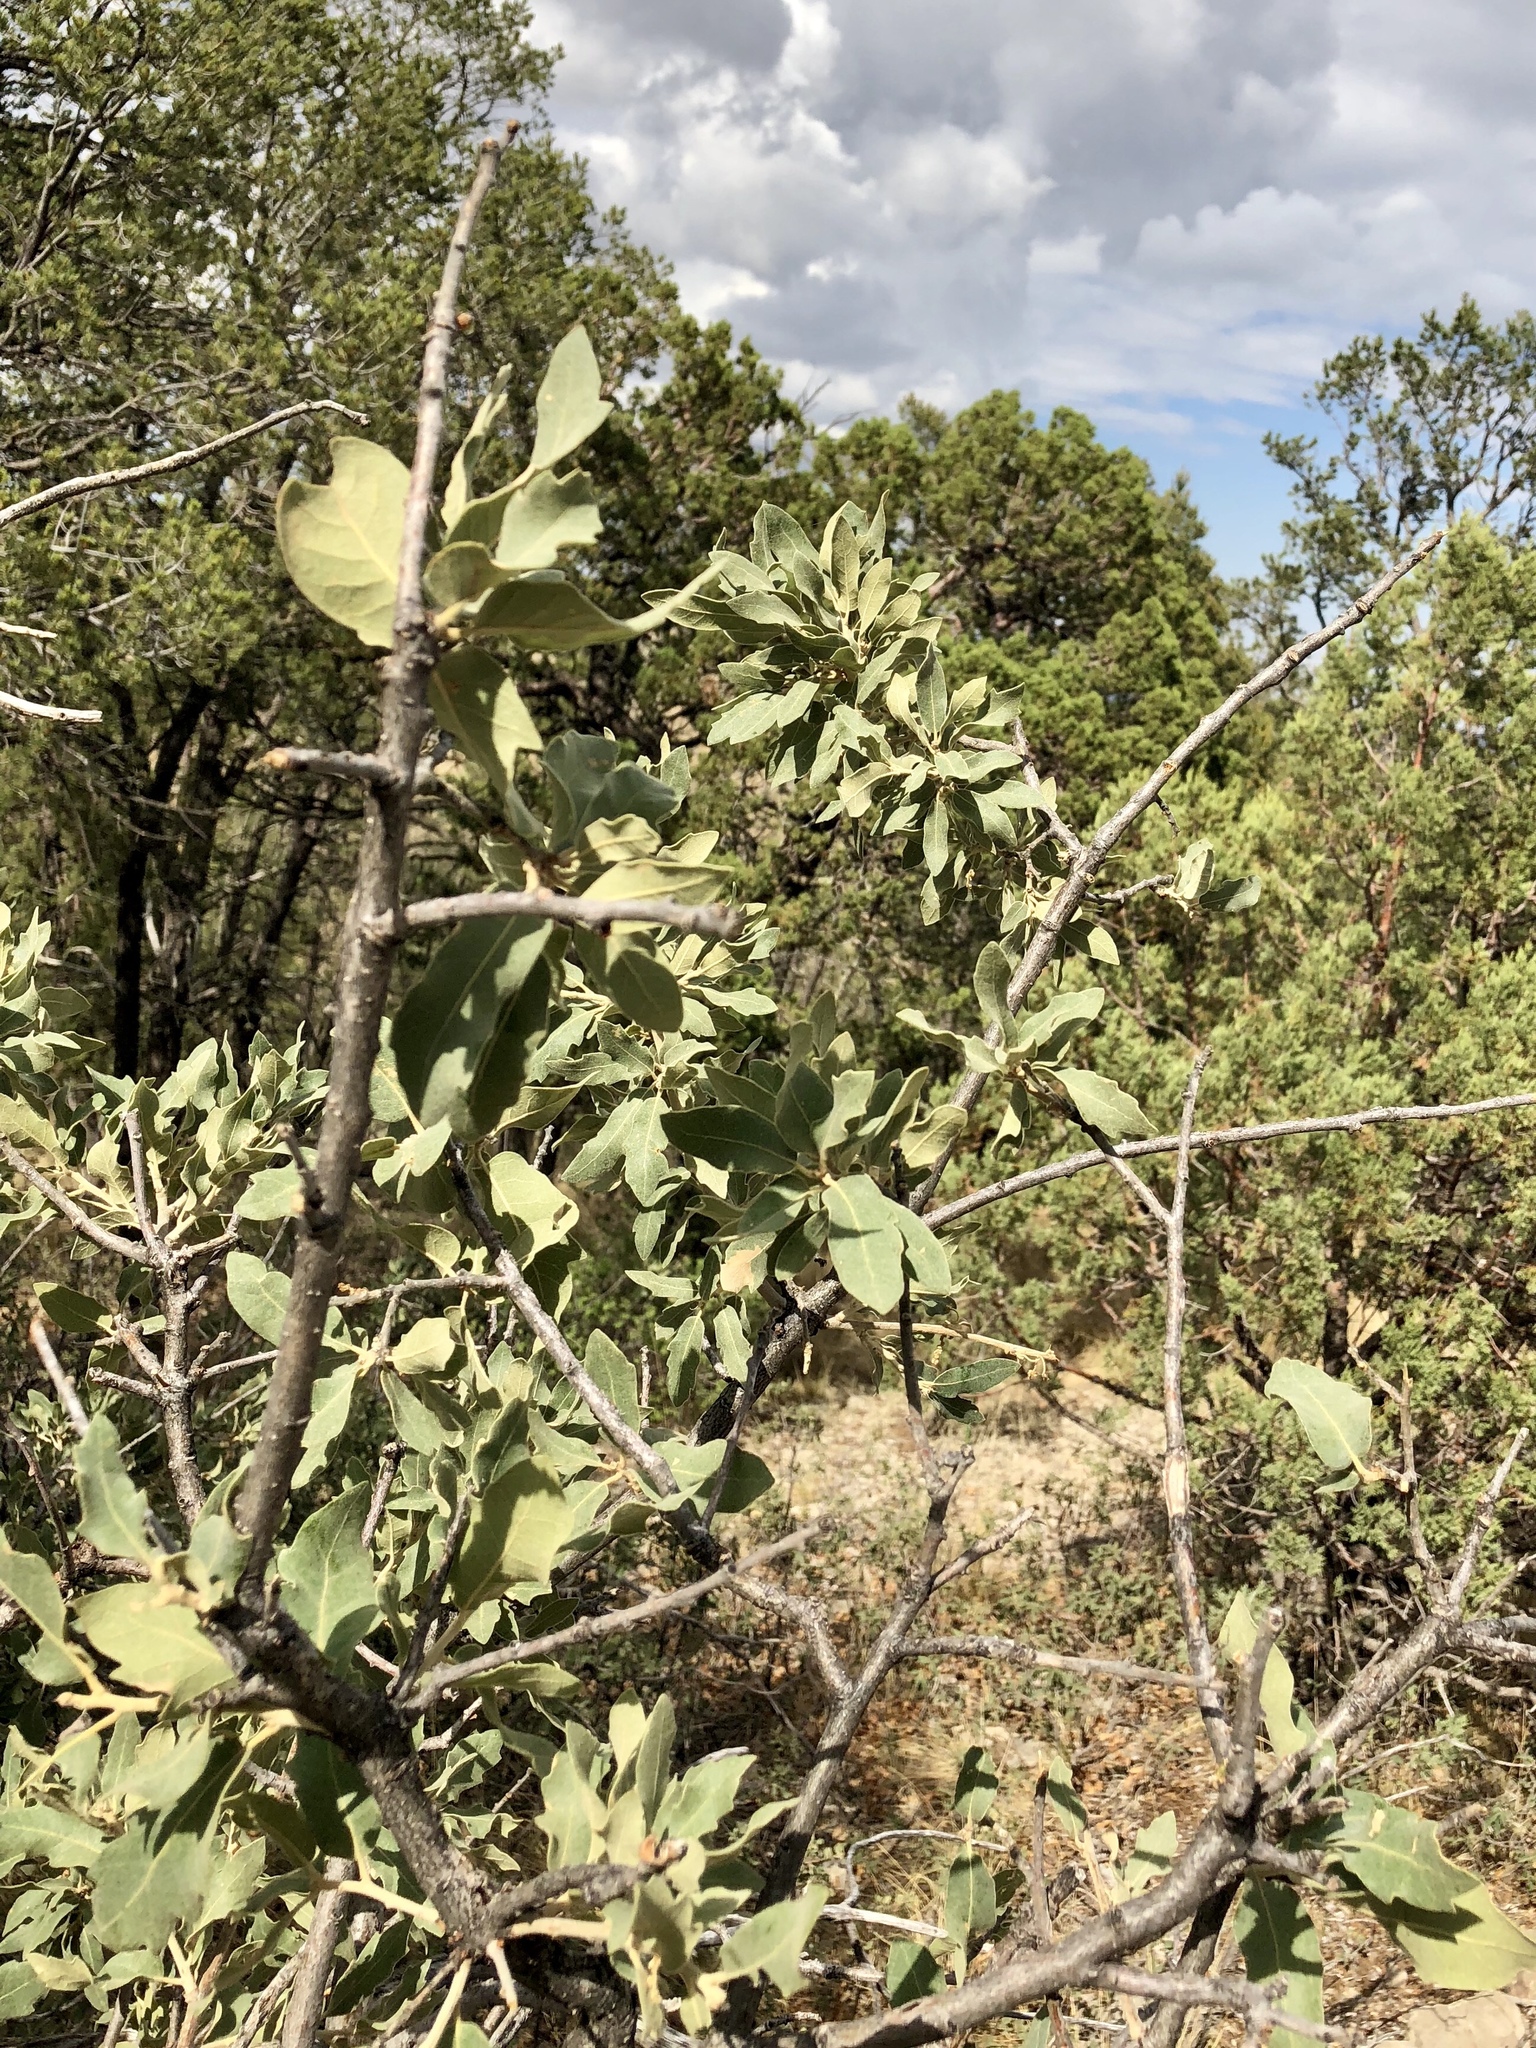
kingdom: Plantae
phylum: Tracheophyta
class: Magnoliopsida
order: Fagales
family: Fagaceae
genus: Quercus
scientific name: Quercus grisea
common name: Gray oak
